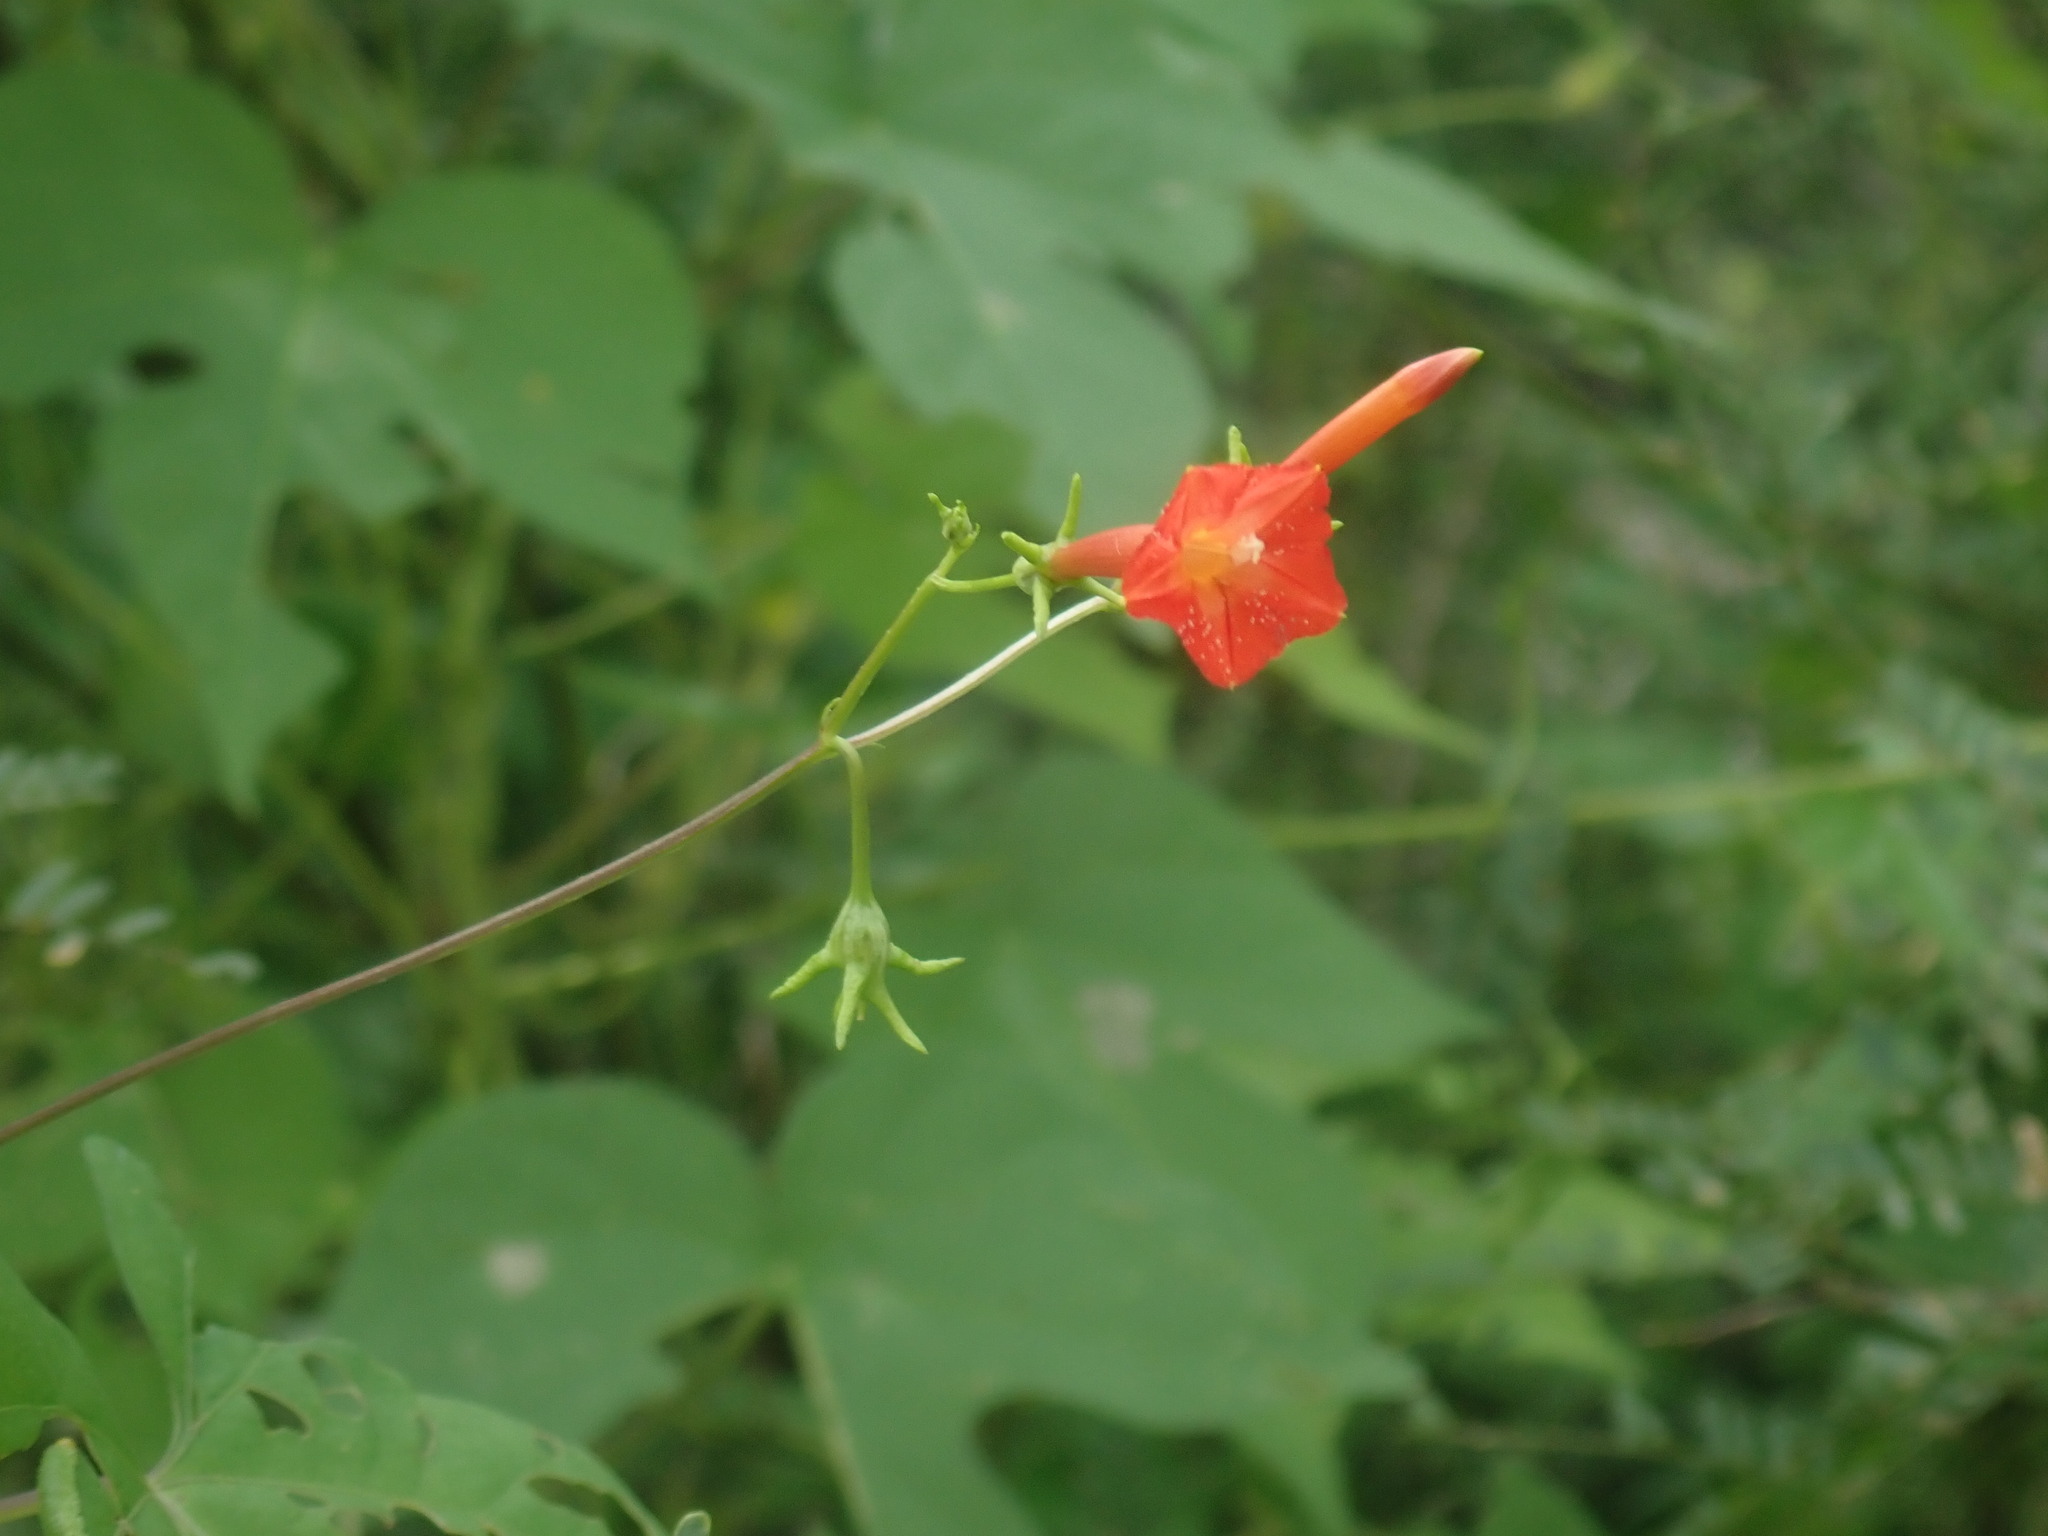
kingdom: Plantae
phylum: Tracheophyta
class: Magnoliopsida
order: Solanales
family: Convolvulaceae
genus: Ipomoea
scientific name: Ipomoea cristulata
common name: Trans-pecos morning-glory
